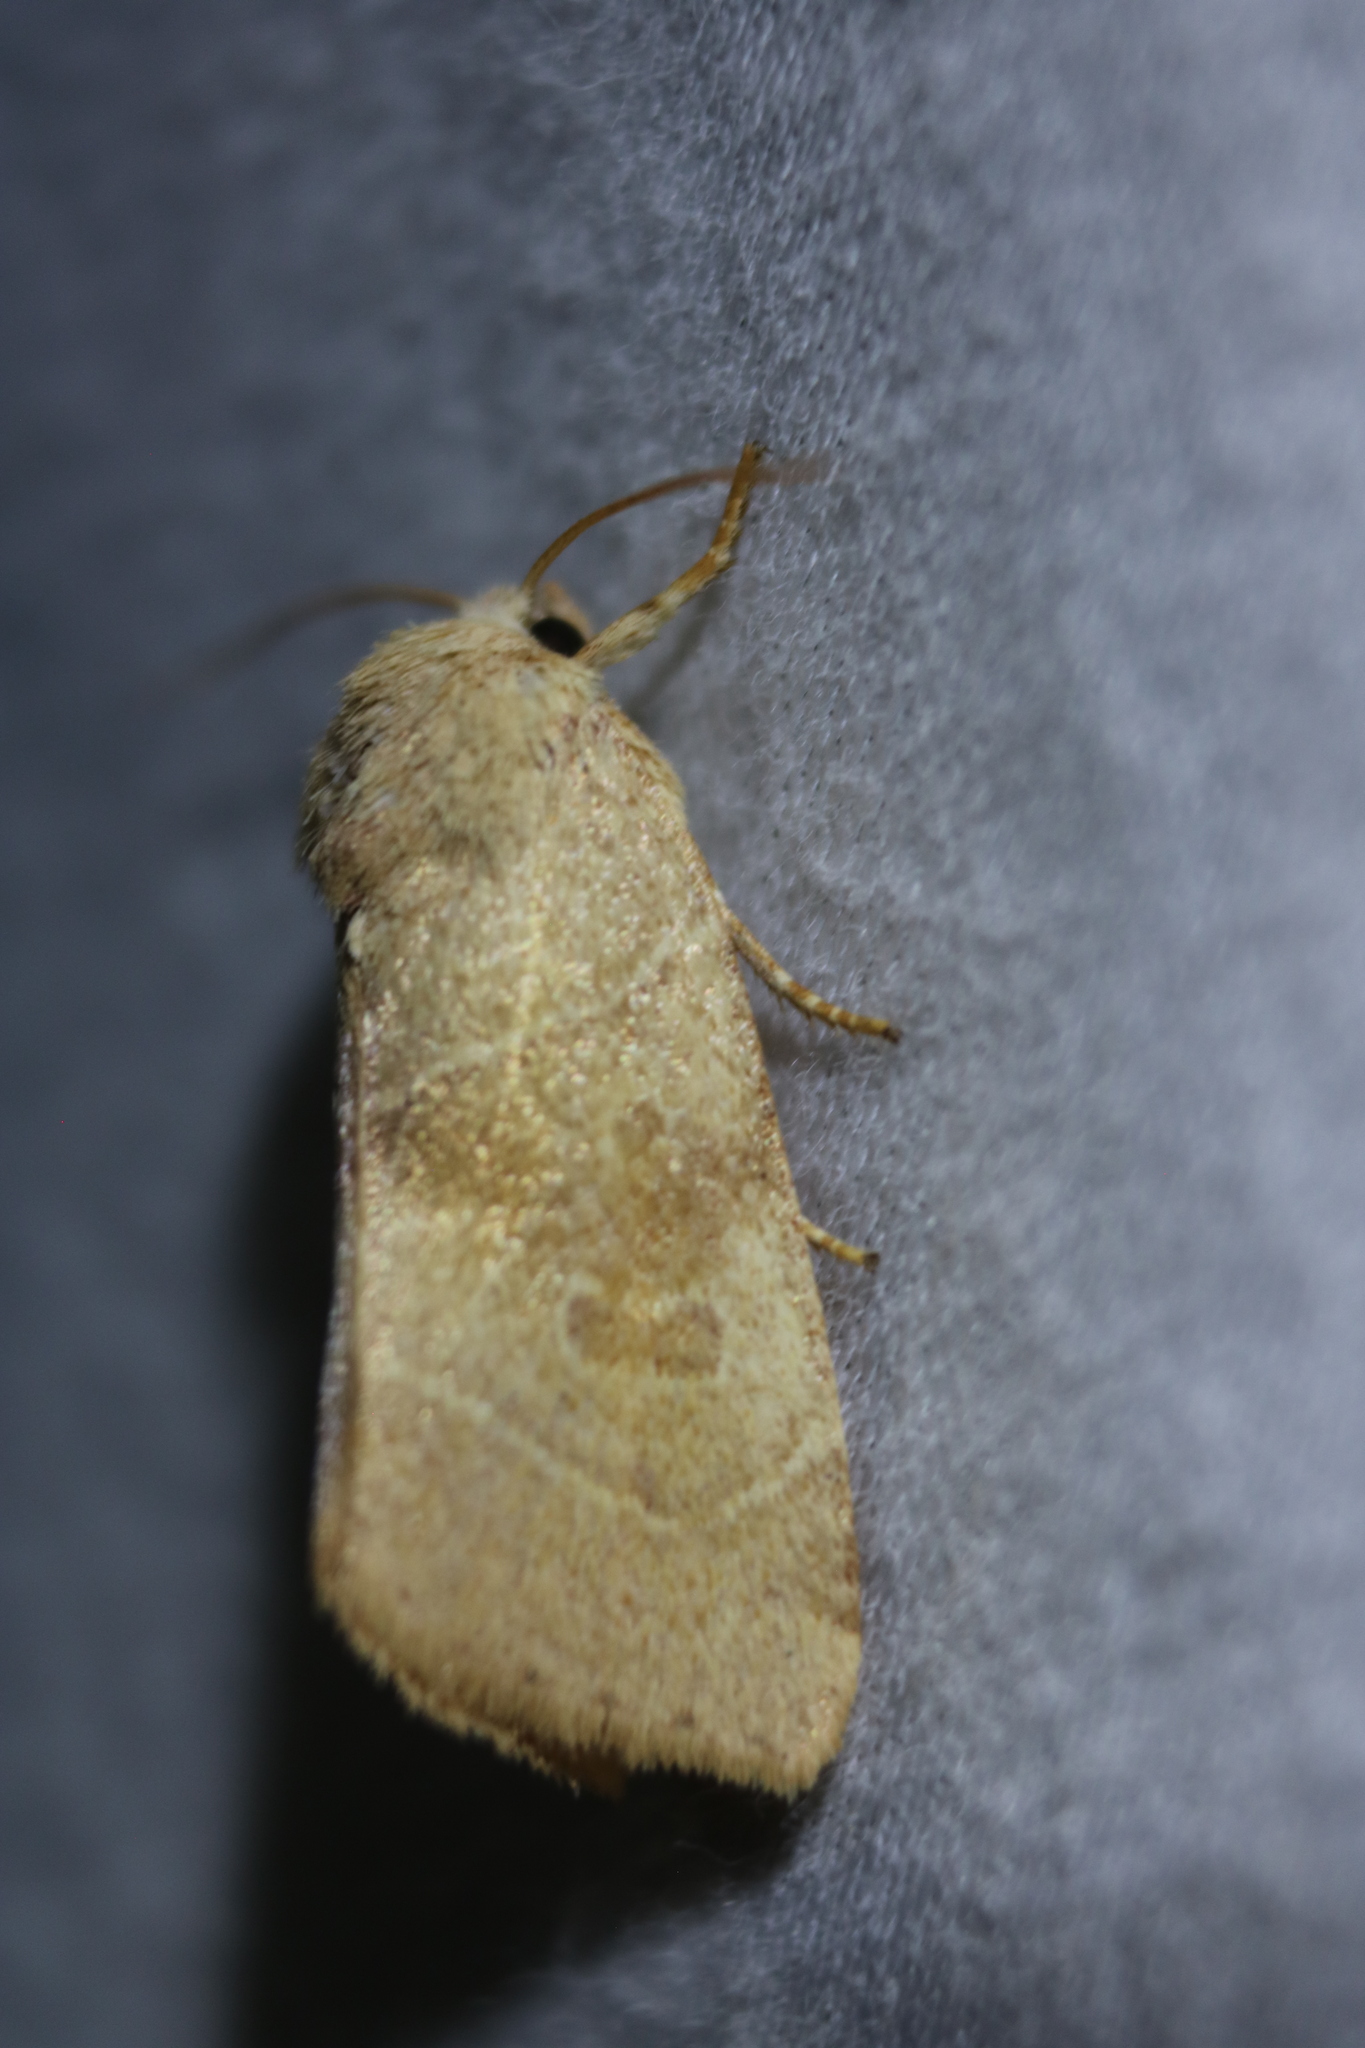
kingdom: Animalia
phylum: Arthropoda
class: Insecta
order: Lepidoptera
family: Noctuidae
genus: Cosmia
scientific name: Cosmia calami
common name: American dun-bar moth
